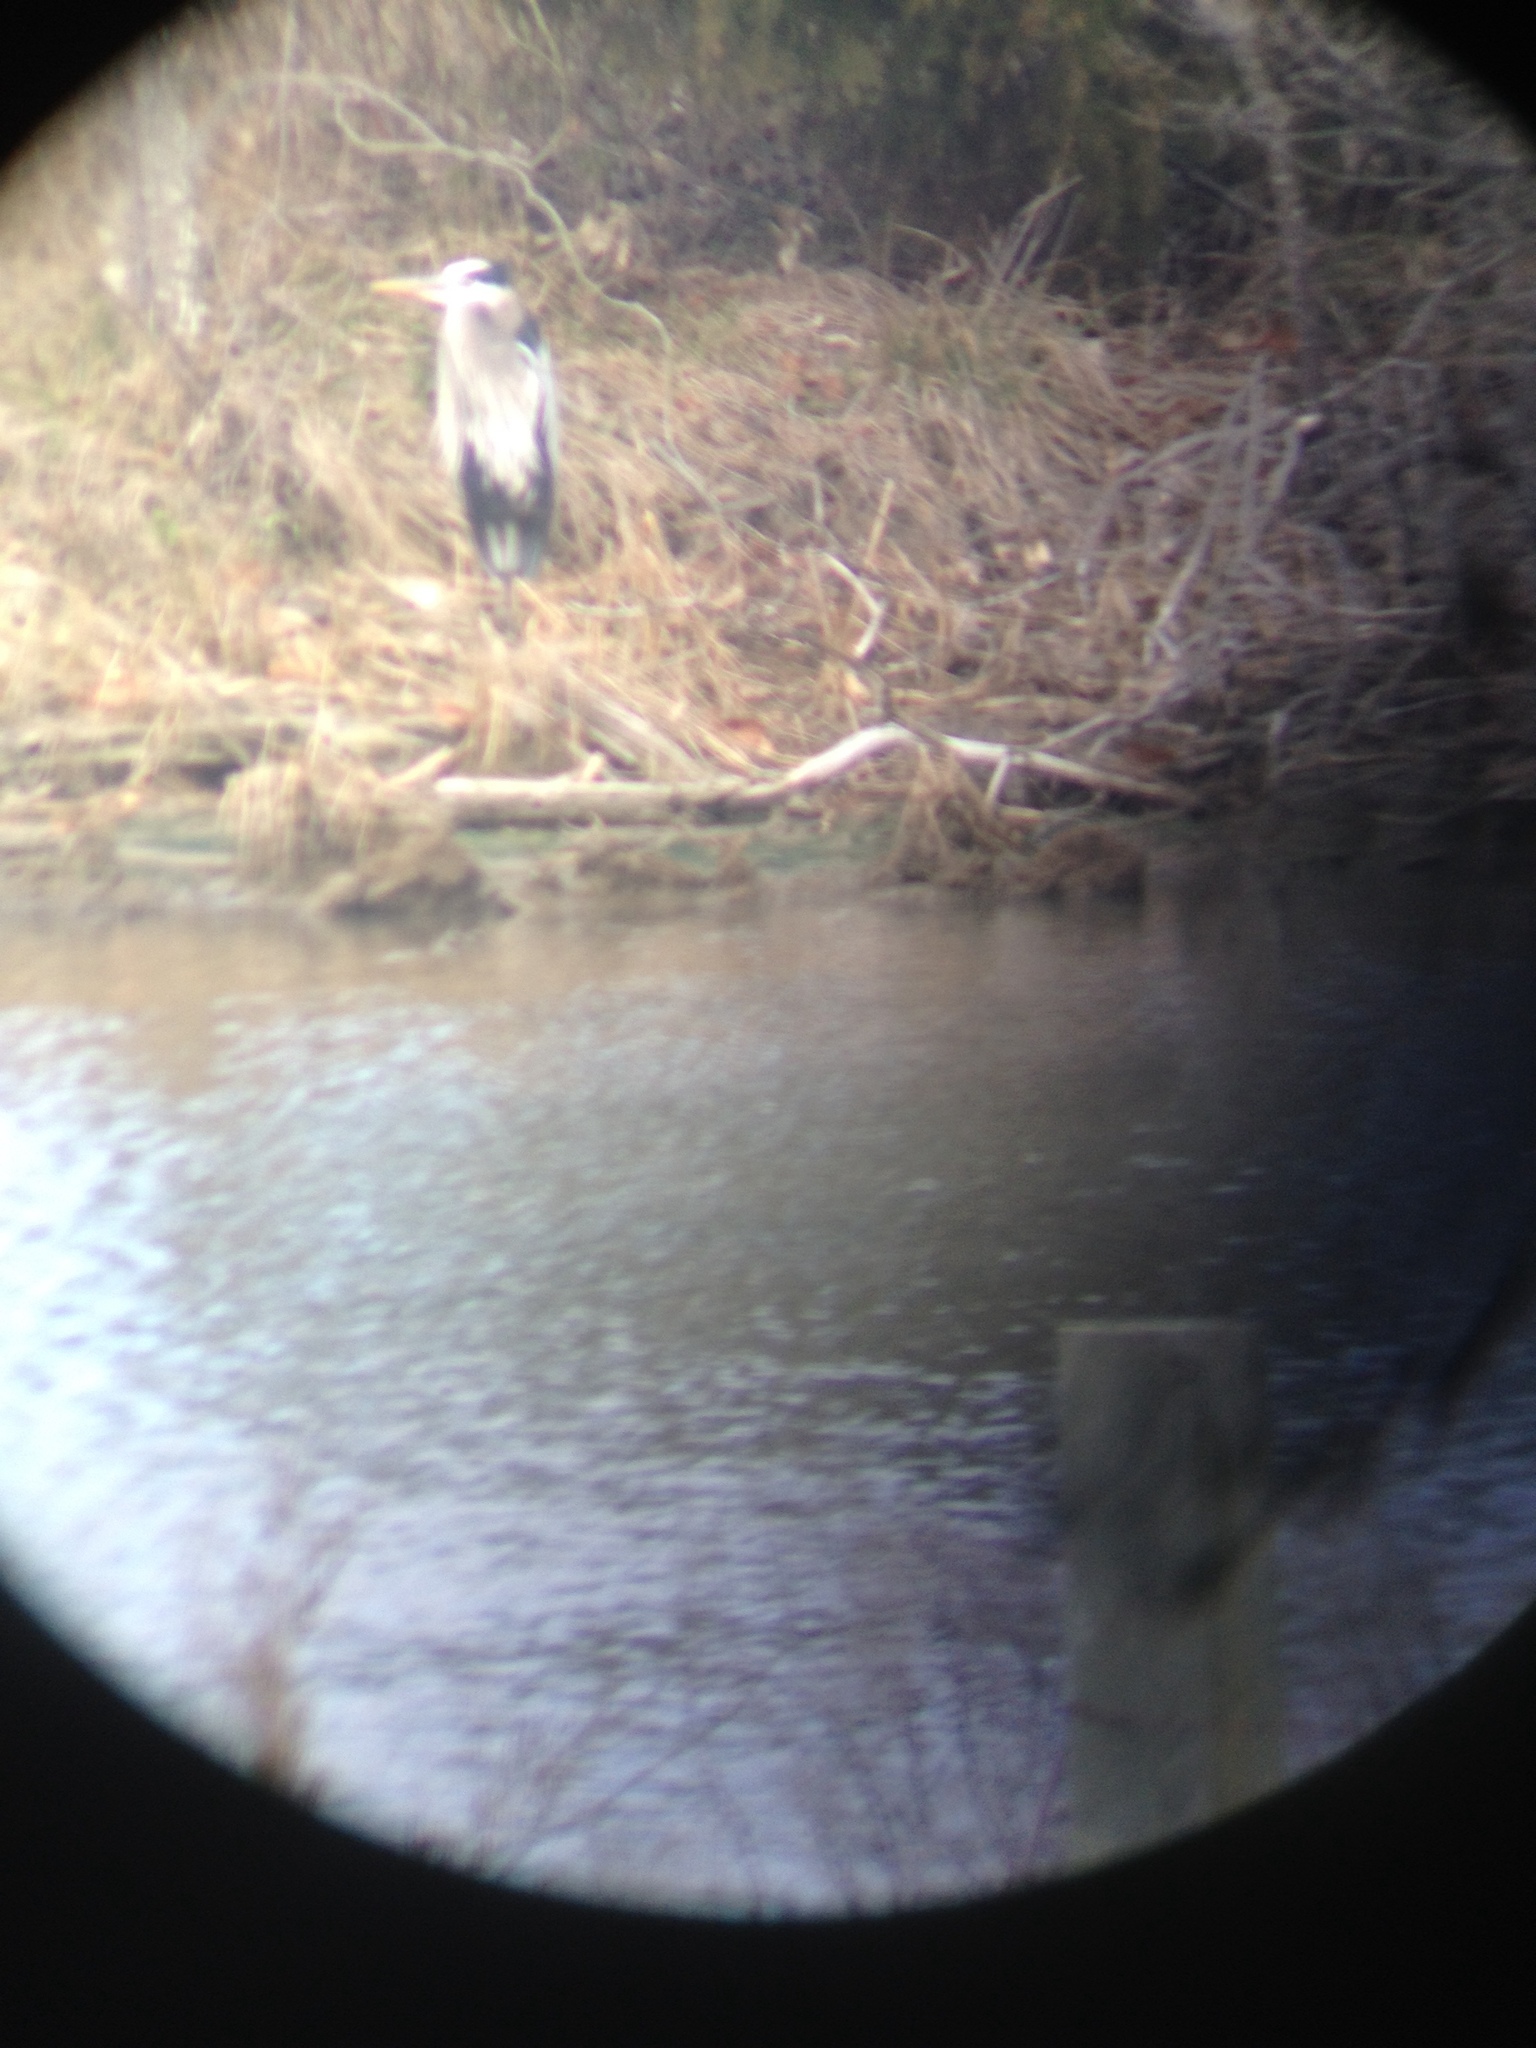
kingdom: Animalia
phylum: Chordata
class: Aves
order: Pelecaniformes
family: Ardeidae
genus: Ardea
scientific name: Ardea herodias
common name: Great blue heron
